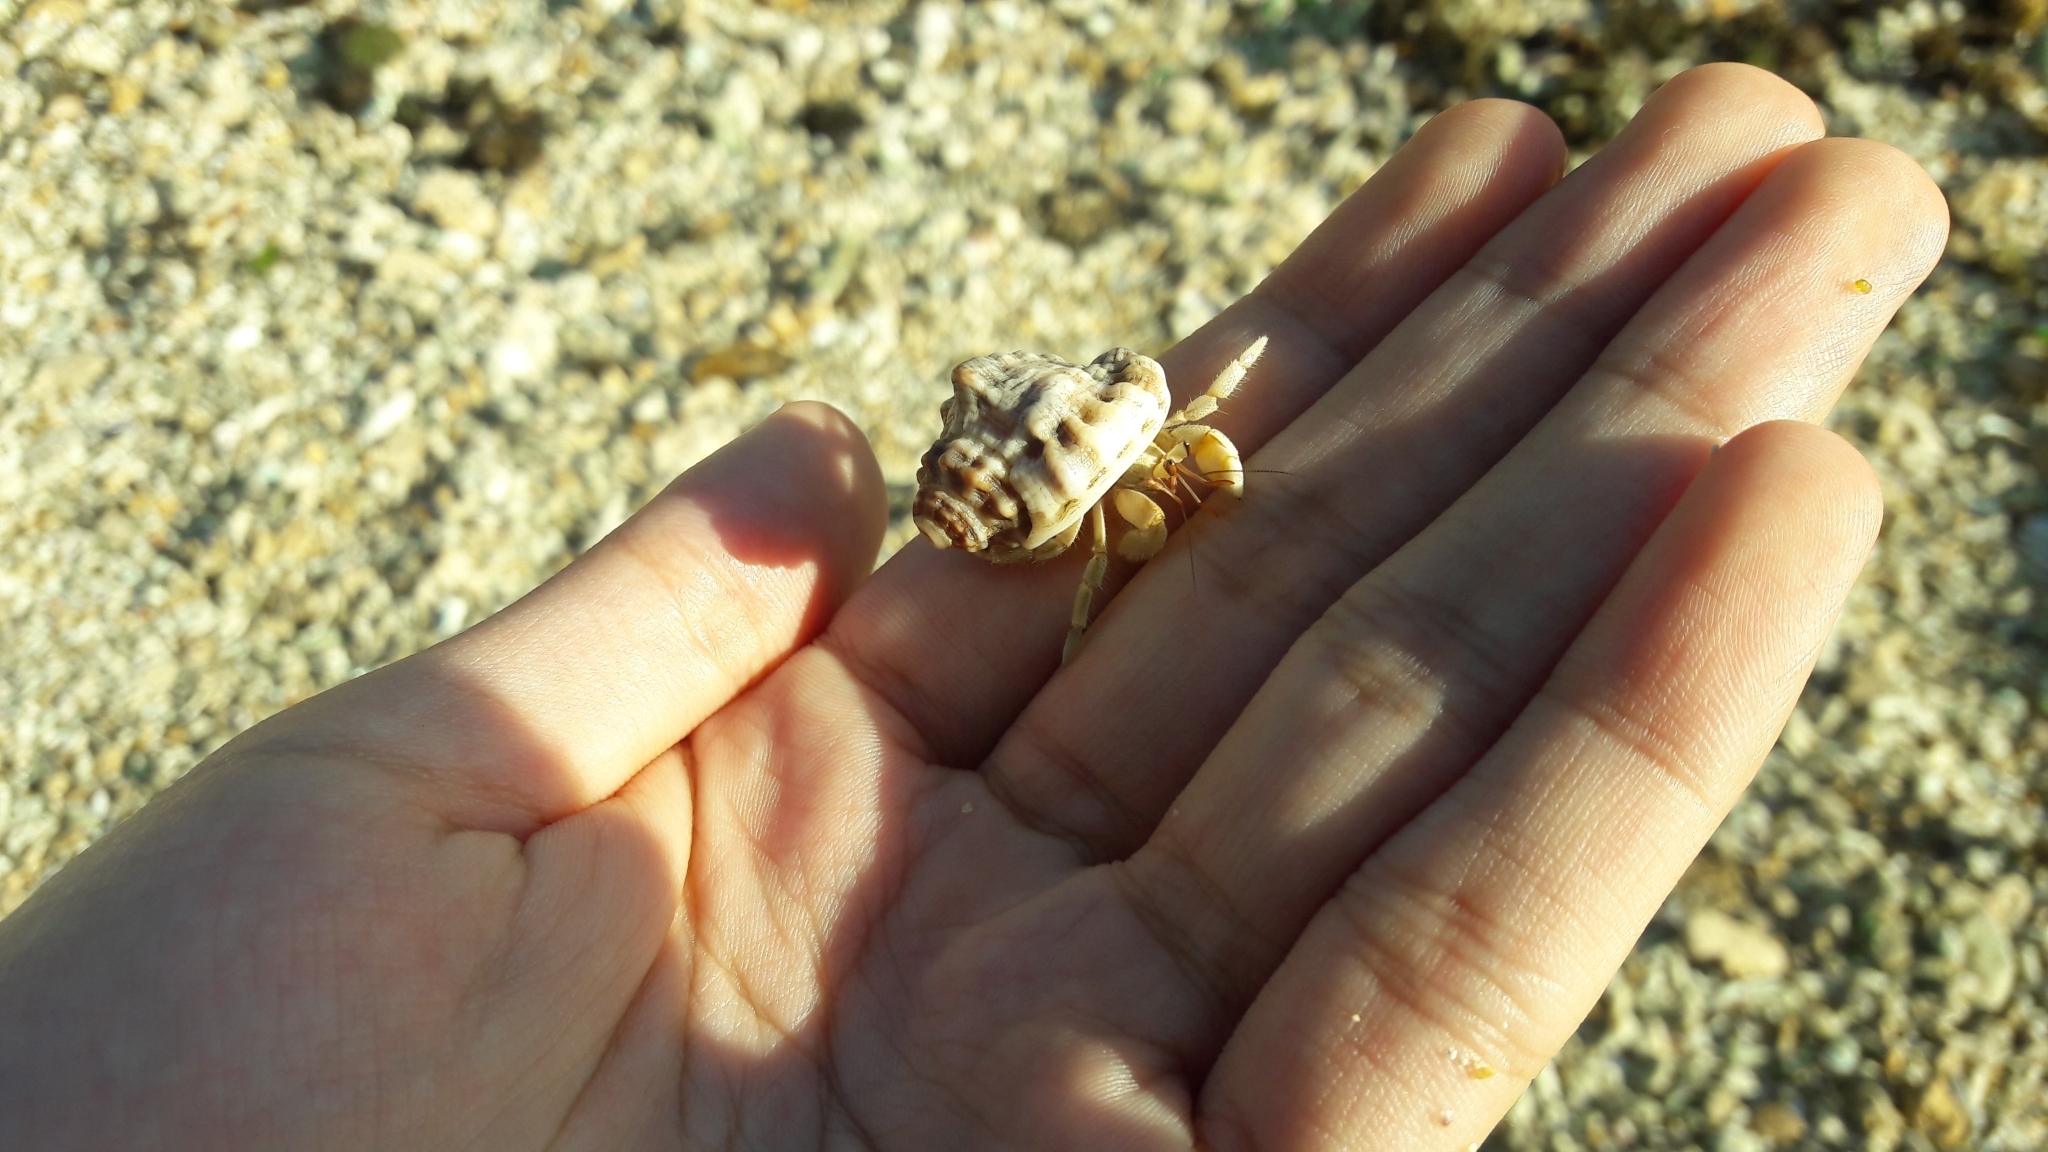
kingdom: Animalia
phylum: Arthropoda
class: Malacostraca
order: Decapoda
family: Coenobitidae
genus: Coenobita
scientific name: Coenobita rugosus
